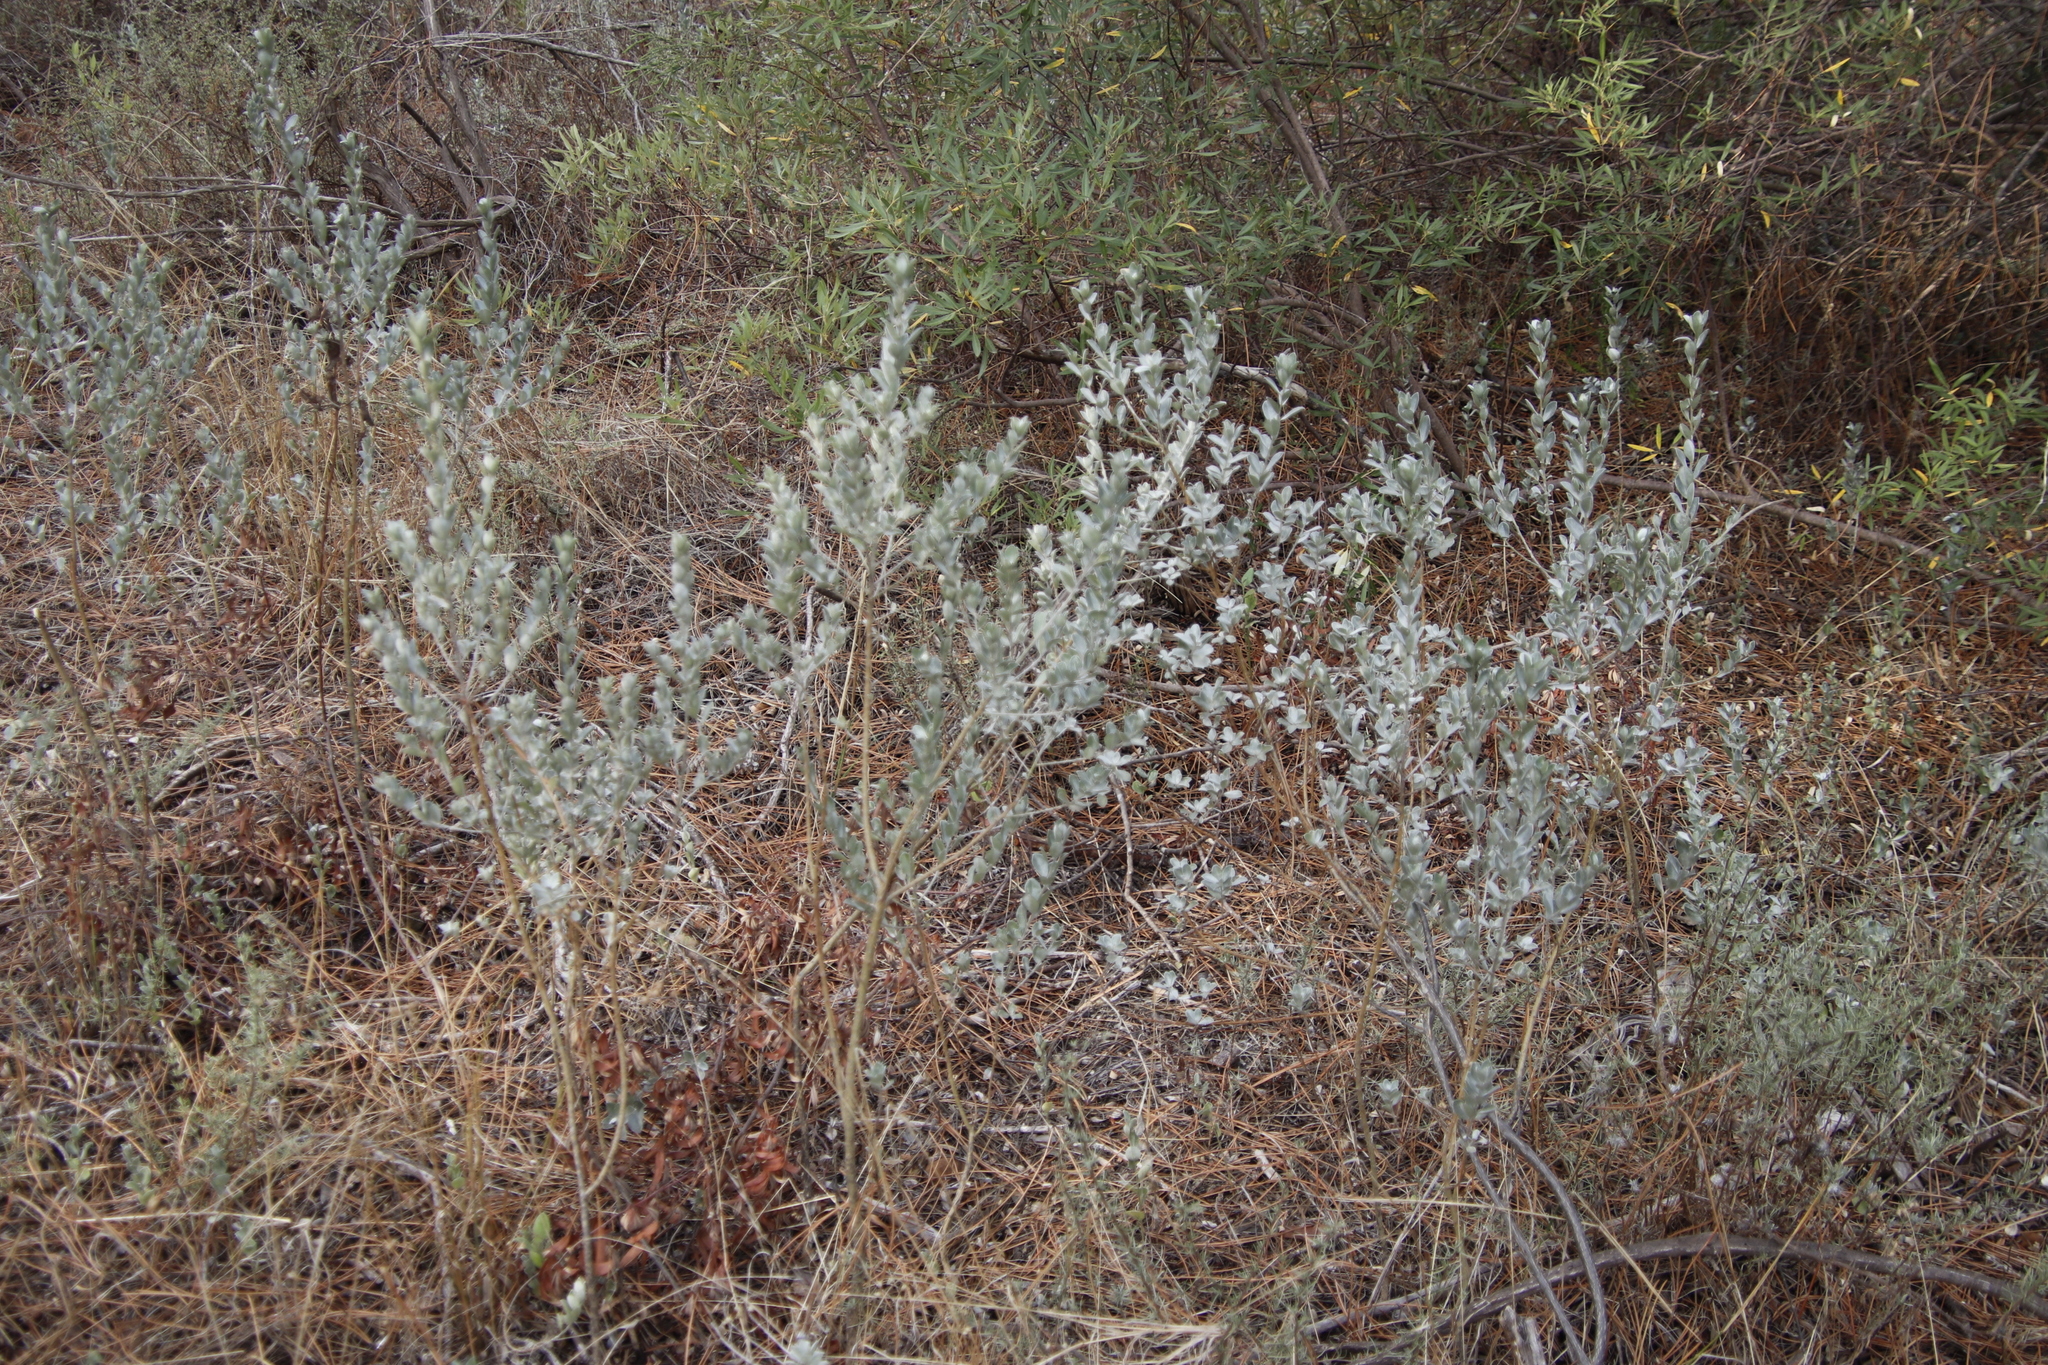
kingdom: Plantae
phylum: Tracheophyta
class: Magnoliopsida
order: Fabales
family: Fabaceae
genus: Podalyria
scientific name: Podalyria sericea
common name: Silver podalyria
